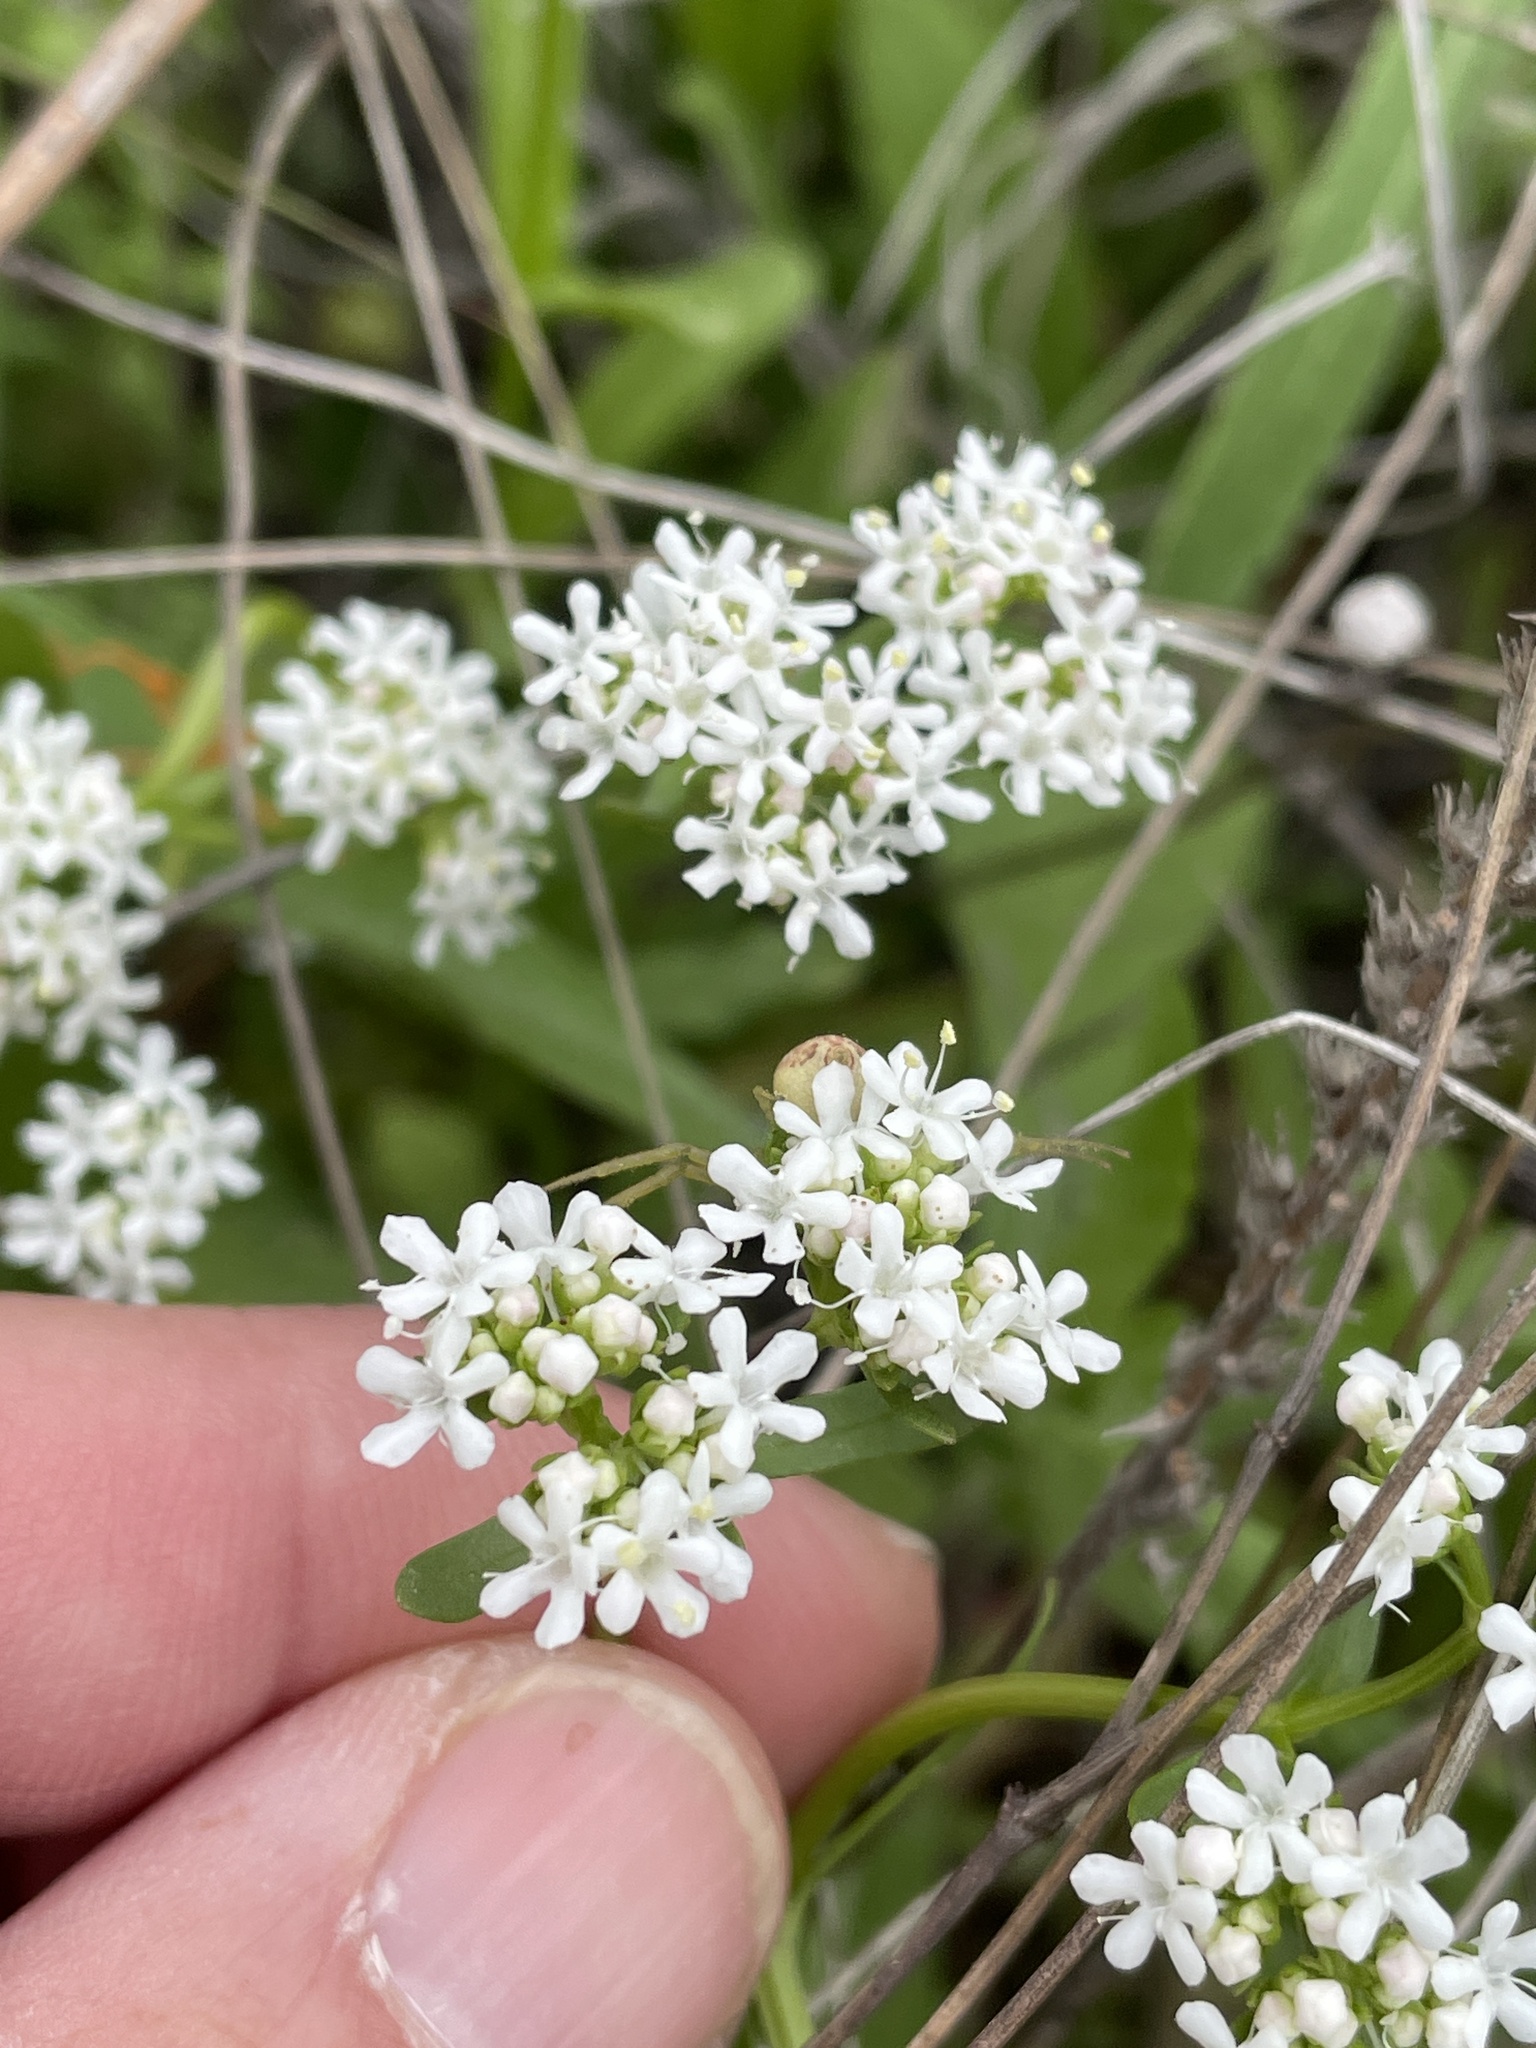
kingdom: Plantae
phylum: Tracheophyta
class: Magnoliopsida
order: Dipsacales
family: Caprifoliaceae
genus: Valerianella
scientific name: Valerianella amarella
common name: Hariy cornsalad
